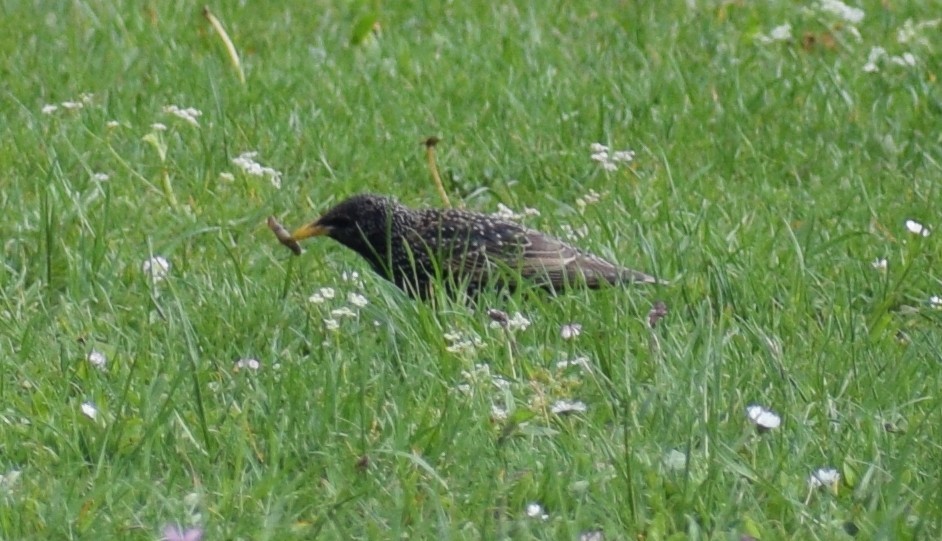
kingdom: Animalia
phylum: Chordata
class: Aves
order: Passeriformes
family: Sturnidae
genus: Sturnus
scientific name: Sturnus vulgaris
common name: Common starling
